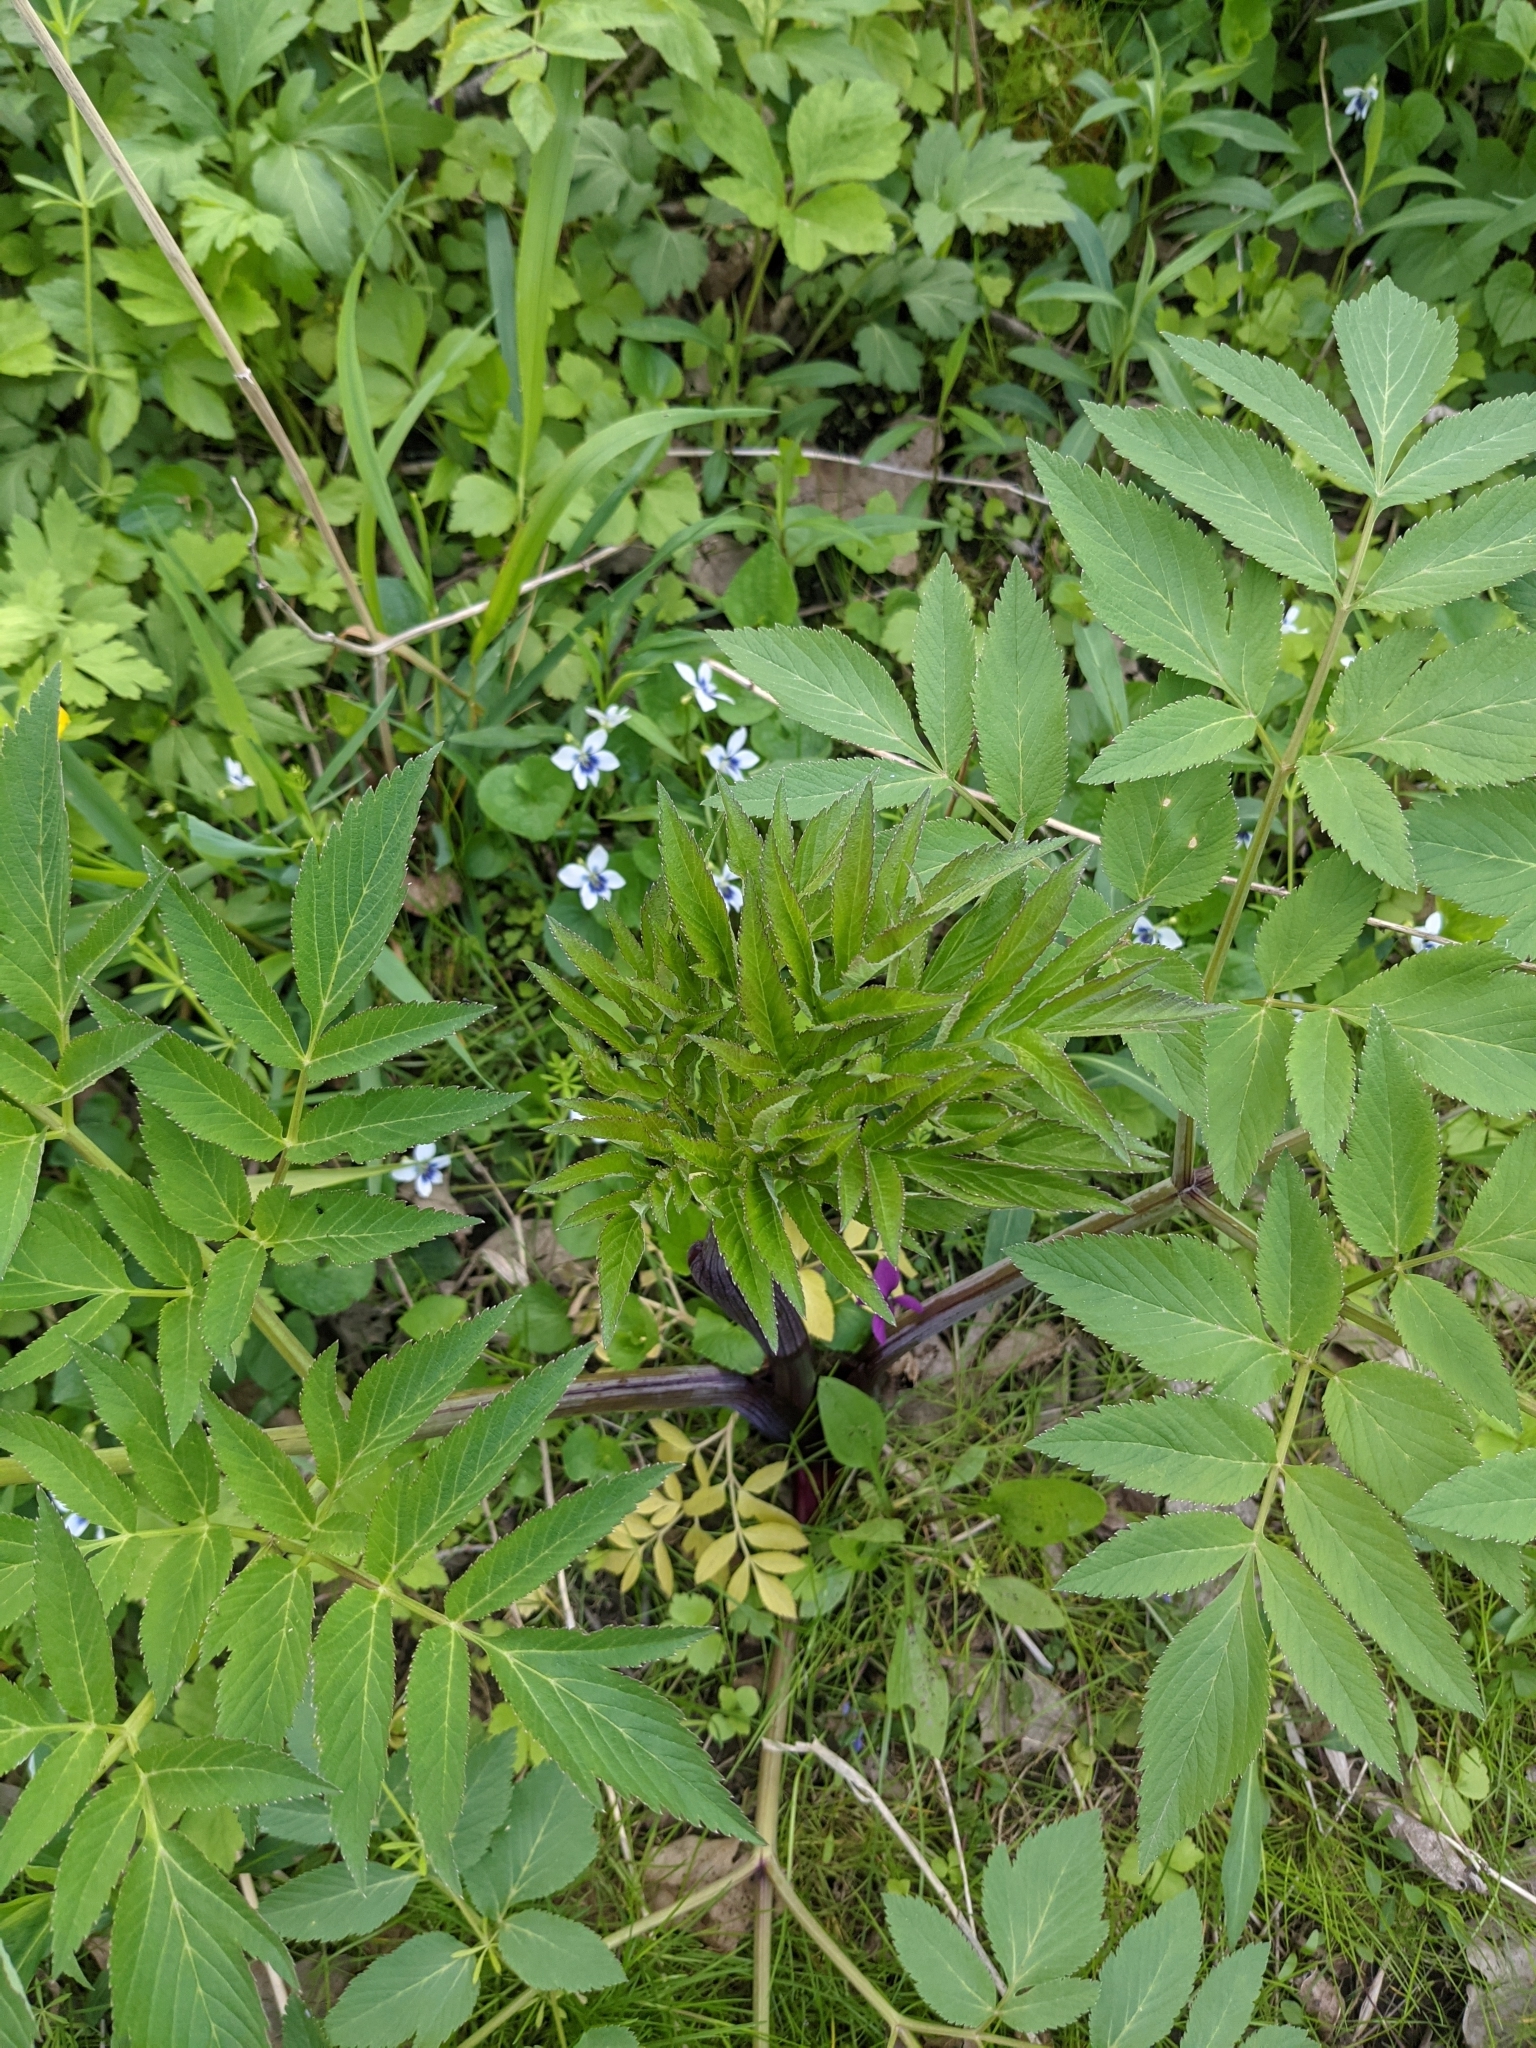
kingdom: Plantae
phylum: Tracheophyta
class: Magnoliopsida
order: Apiales
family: Apiaceae
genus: Angelica
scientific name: Angelica atropurpurea
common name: Great angelica
